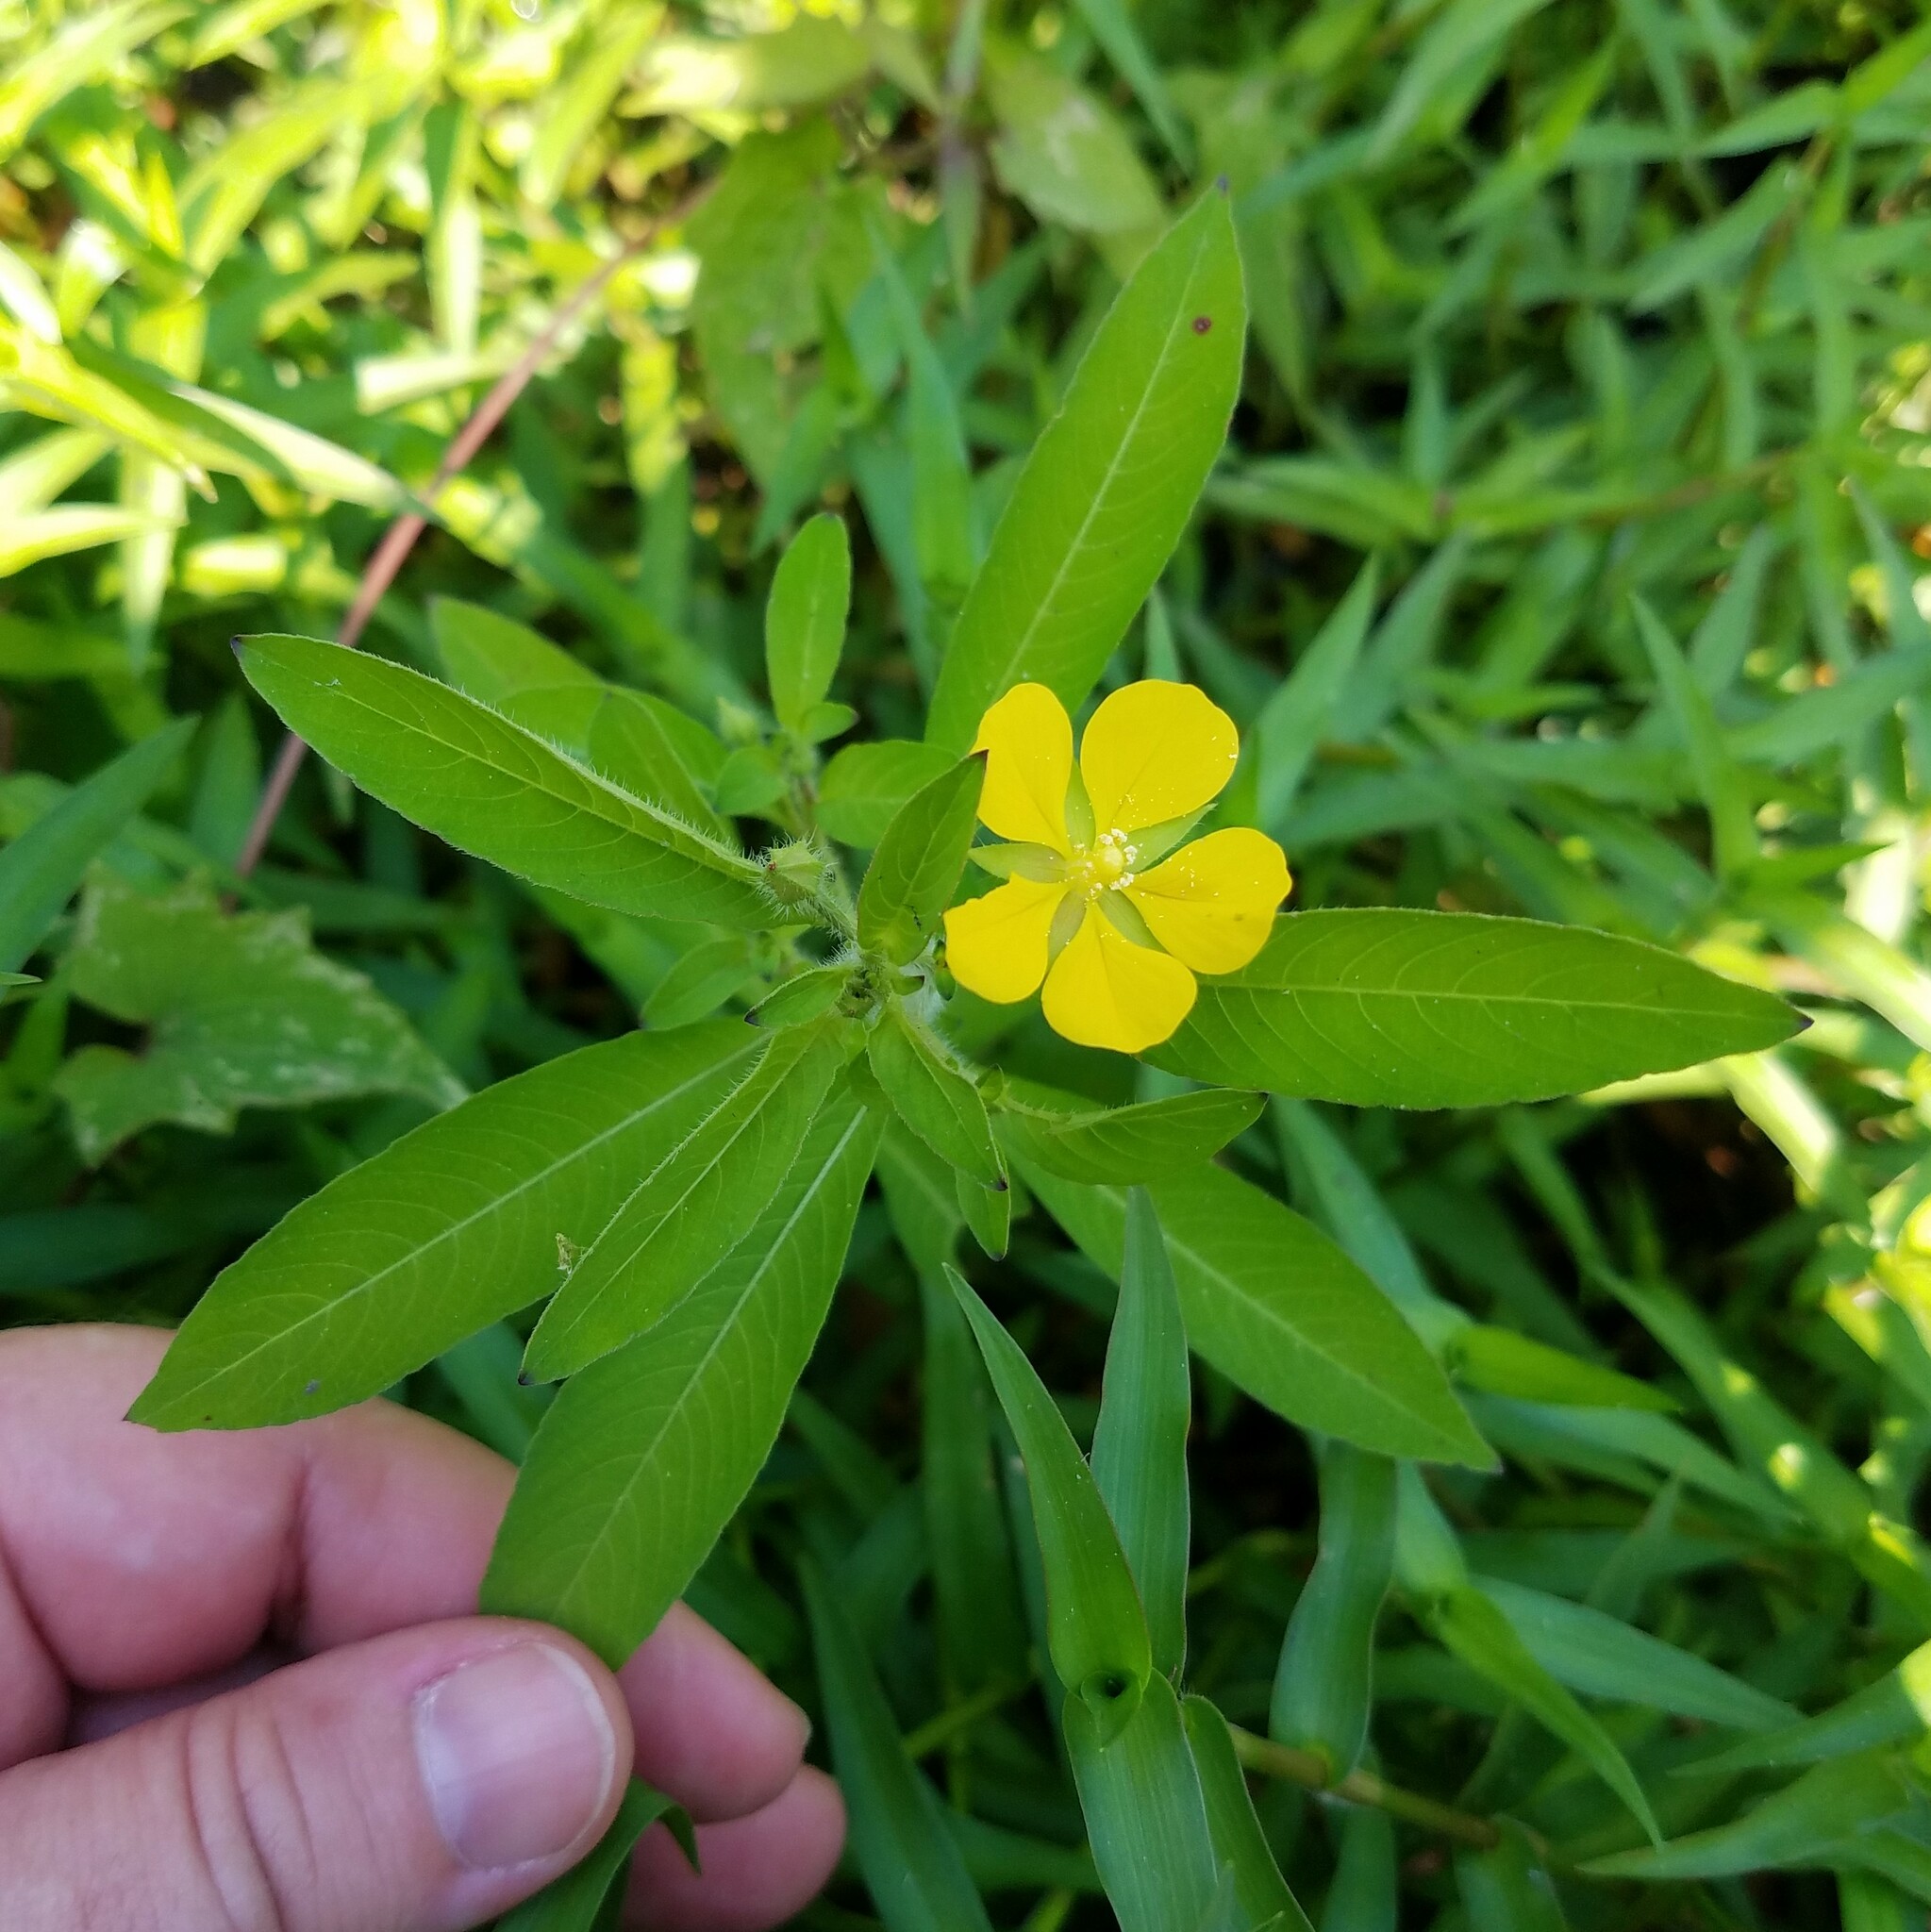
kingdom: Plantae
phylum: Tracheophyta
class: Magnoliopsida
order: Myrtales
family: Onagraceae
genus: Ludwigia
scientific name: Ludwigia leptocarpa
